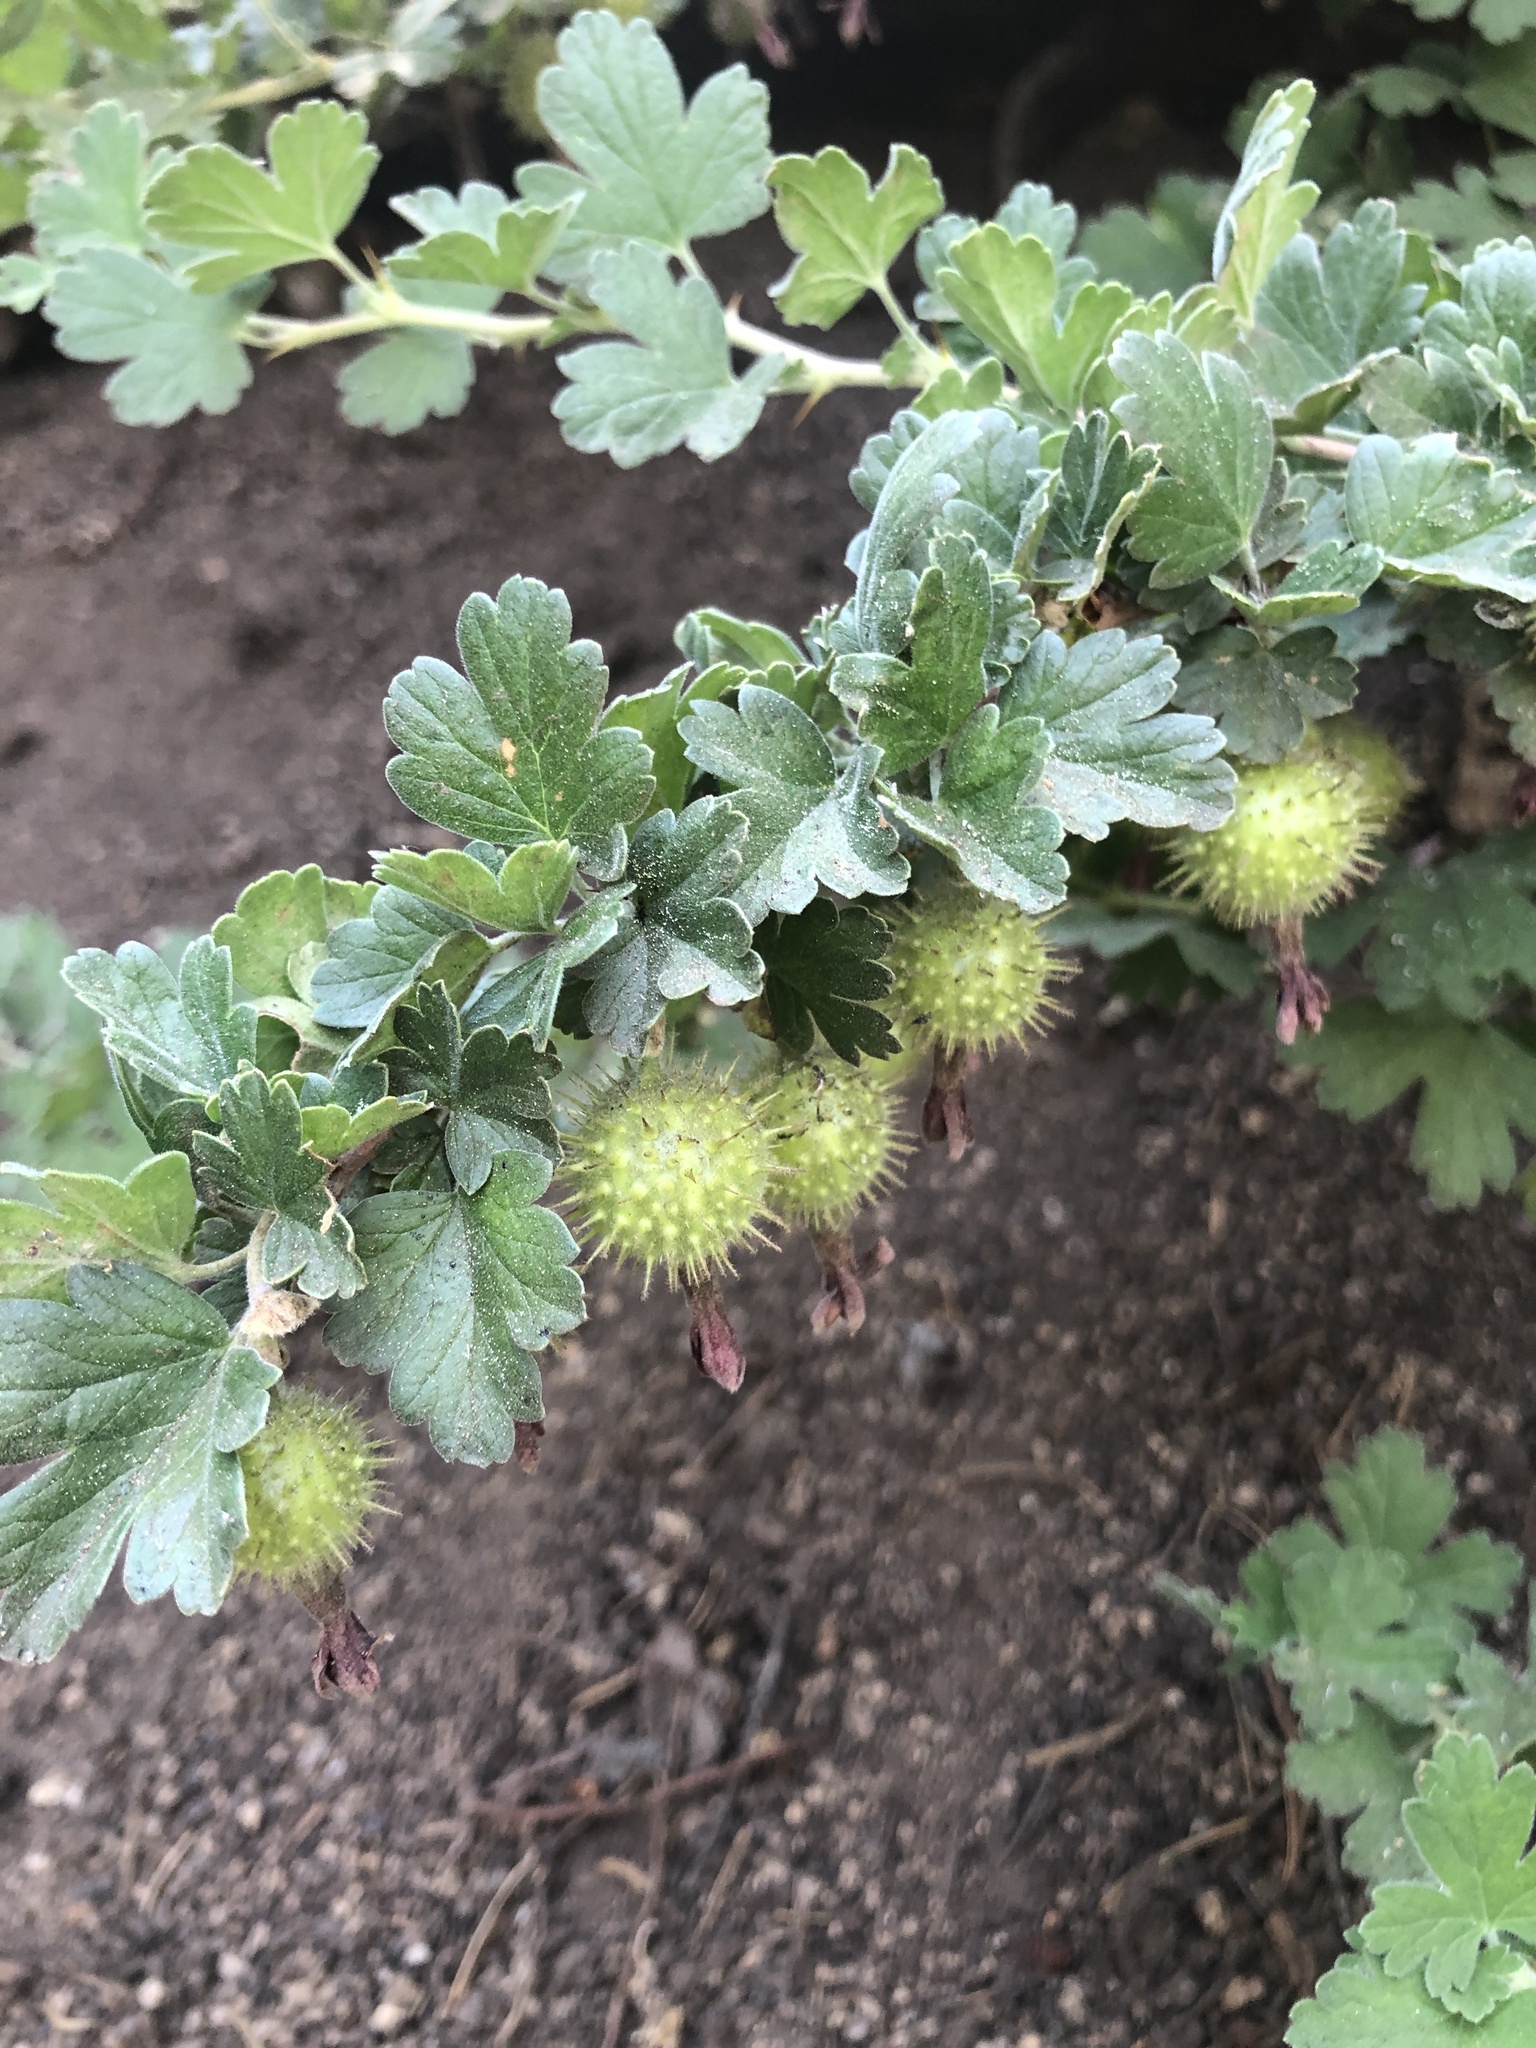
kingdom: Plantae
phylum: Tracheophyta
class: Magnoliopsida
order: Saxifragales
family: Grossulariaceae
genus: Ribes
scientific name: Ribes roezlii
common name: Sierra gooseberry
